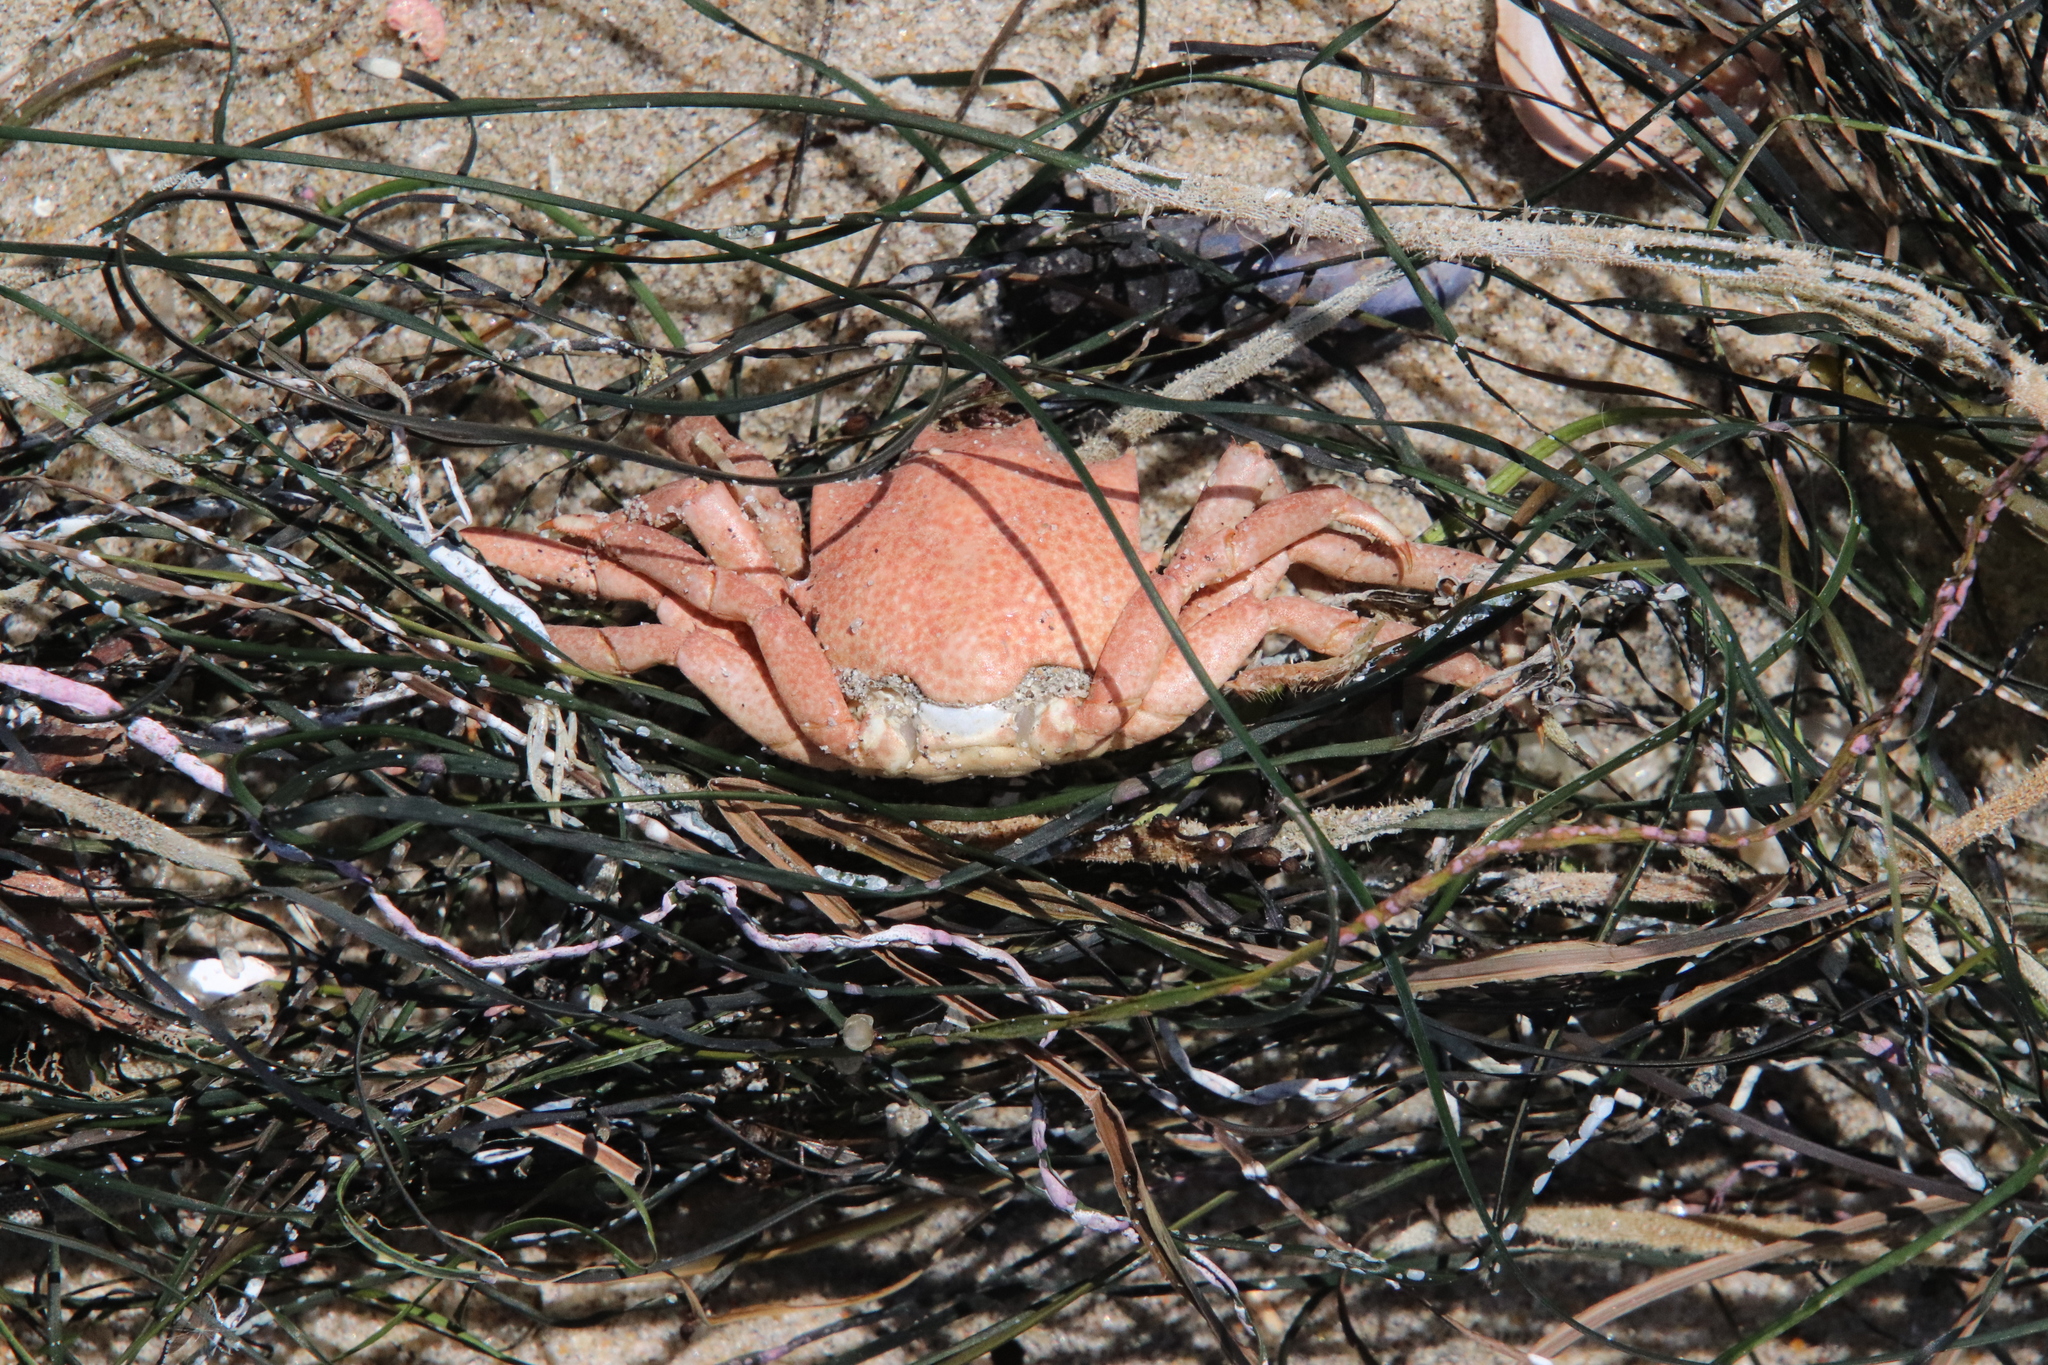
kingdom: Animalia
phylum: Arthropoda
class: Malacostraca
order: Decapoda
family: Epialtidae
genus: Pugettia
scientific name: Pugettia producta
